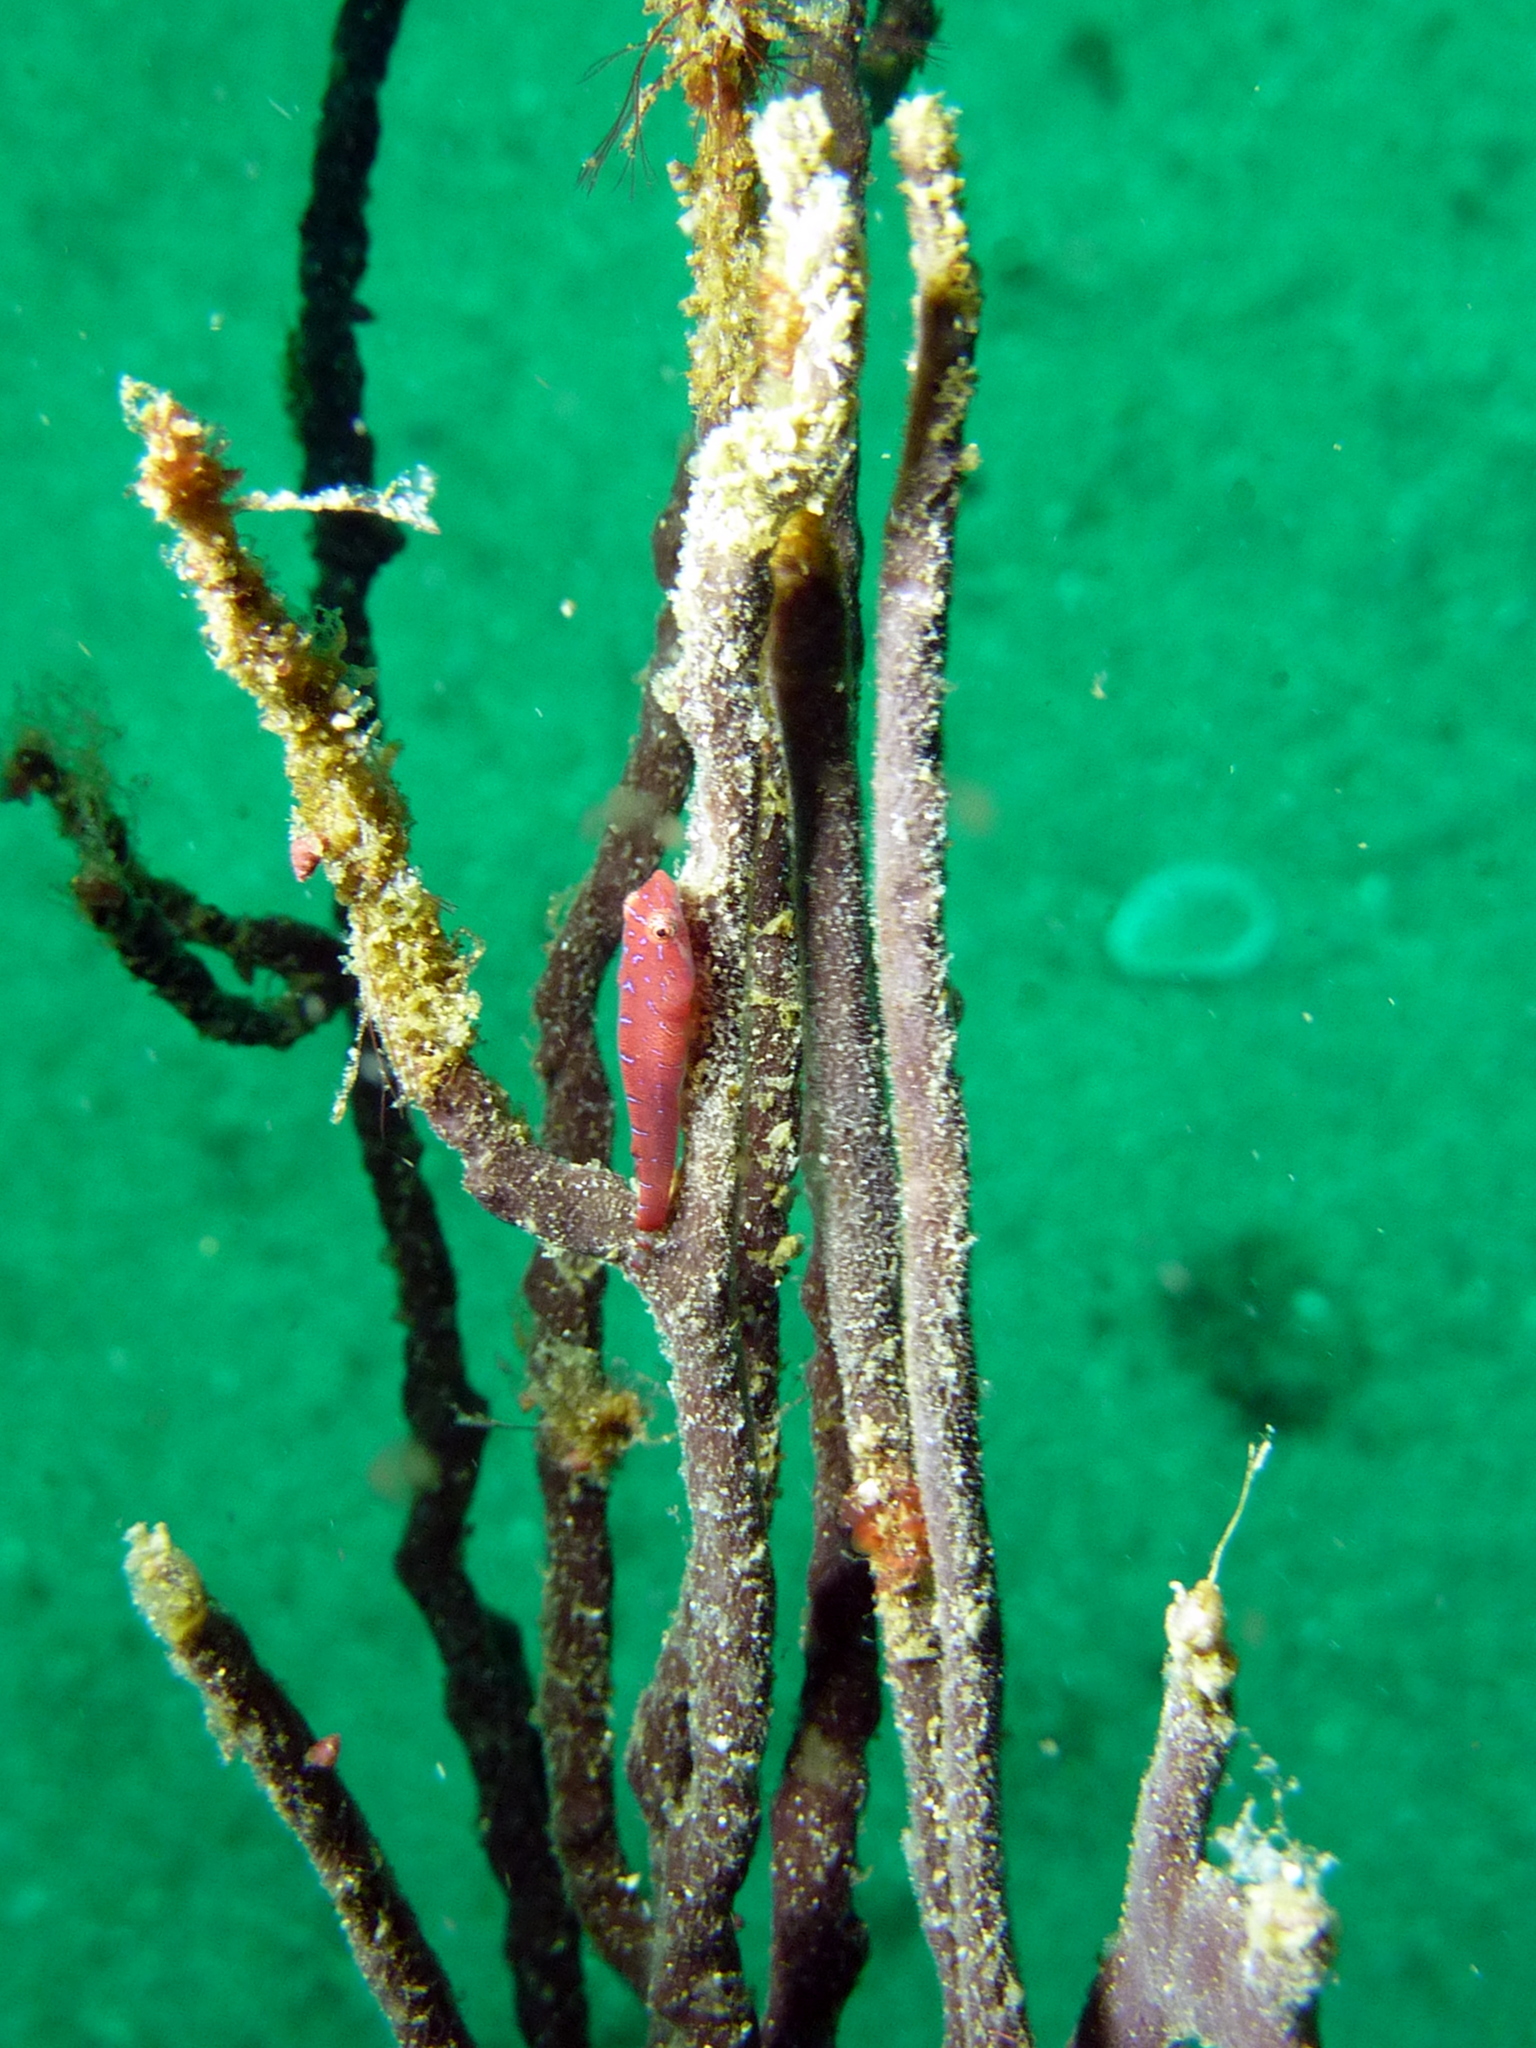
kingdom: Animalia
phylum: Chordata
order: Gobiesociformes
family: Gobiesocidae
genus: Cochleoceps
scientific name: Cochleoceps orientalis
